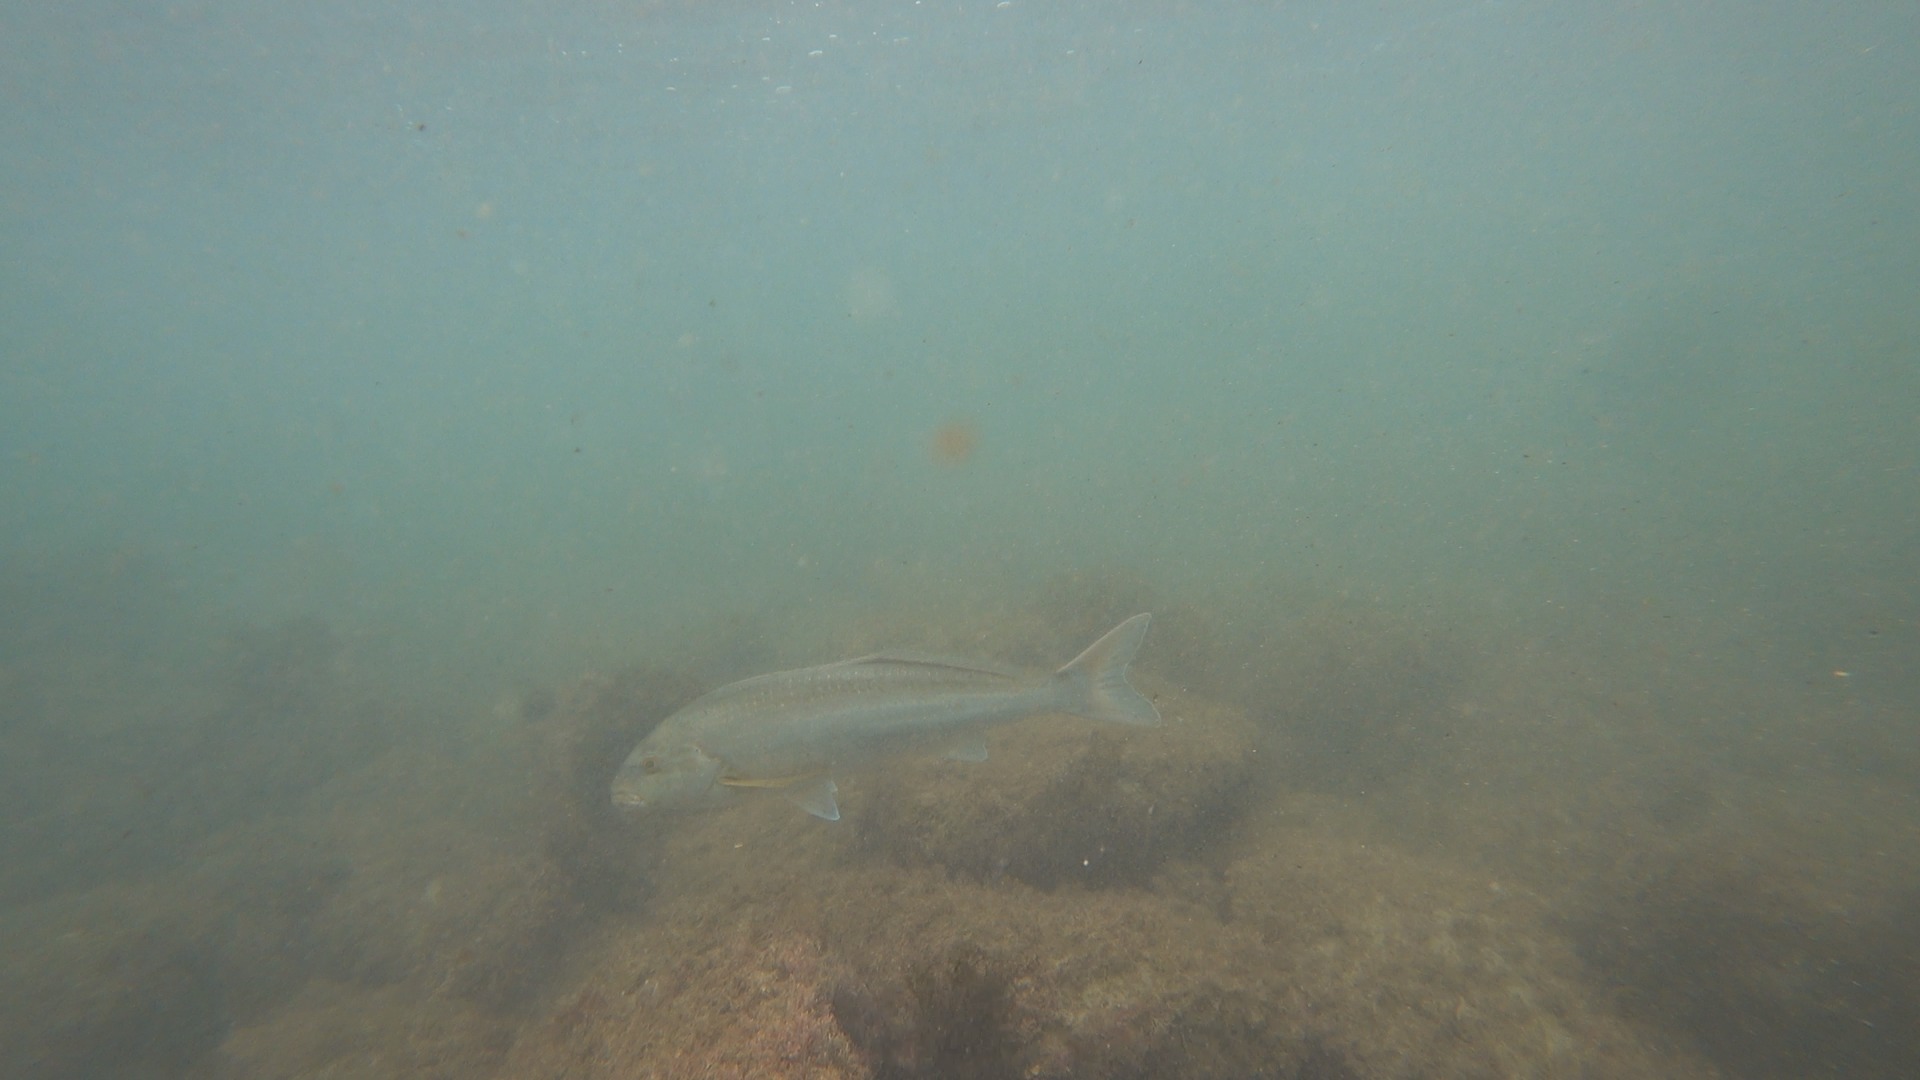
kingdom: Animalia
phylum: Chordata
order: Perciformes
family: Cheilodactylidae
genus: Dactylophora
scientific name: Dactylophora nigricans
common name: Dusky morwong
